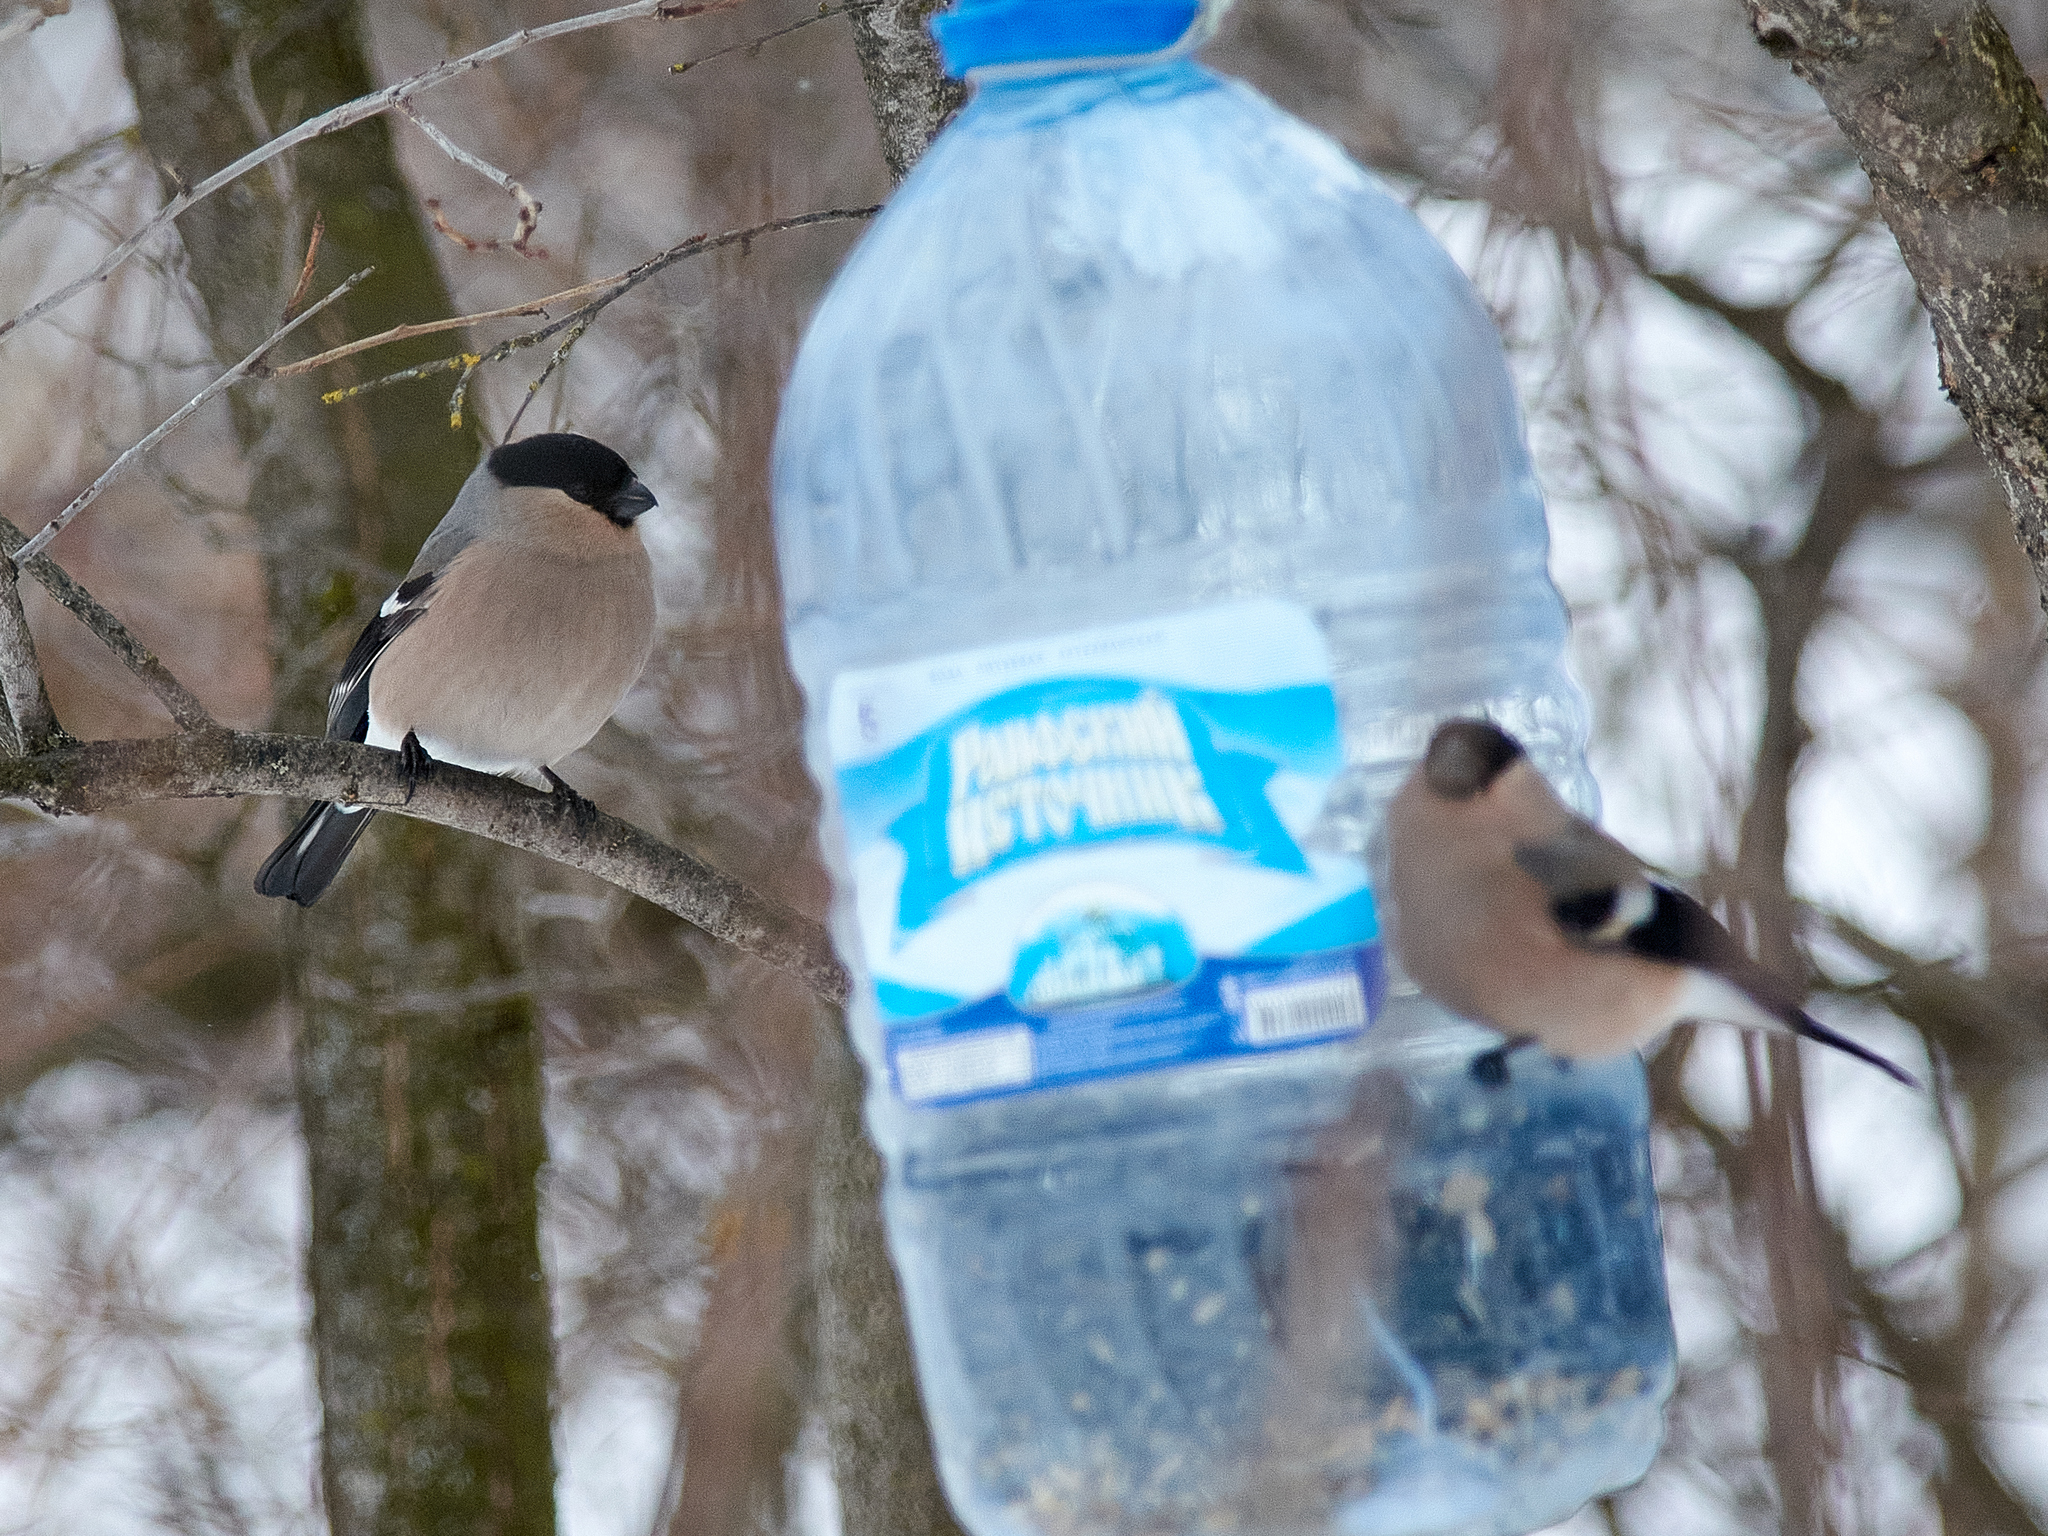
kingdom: Animalia
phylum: Chordata
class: Aves
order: Passeriformes
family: Fringillidae
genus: Pyrrhula
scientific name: Pyrrhula pyrrhula
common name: Eurasian bullfinch
